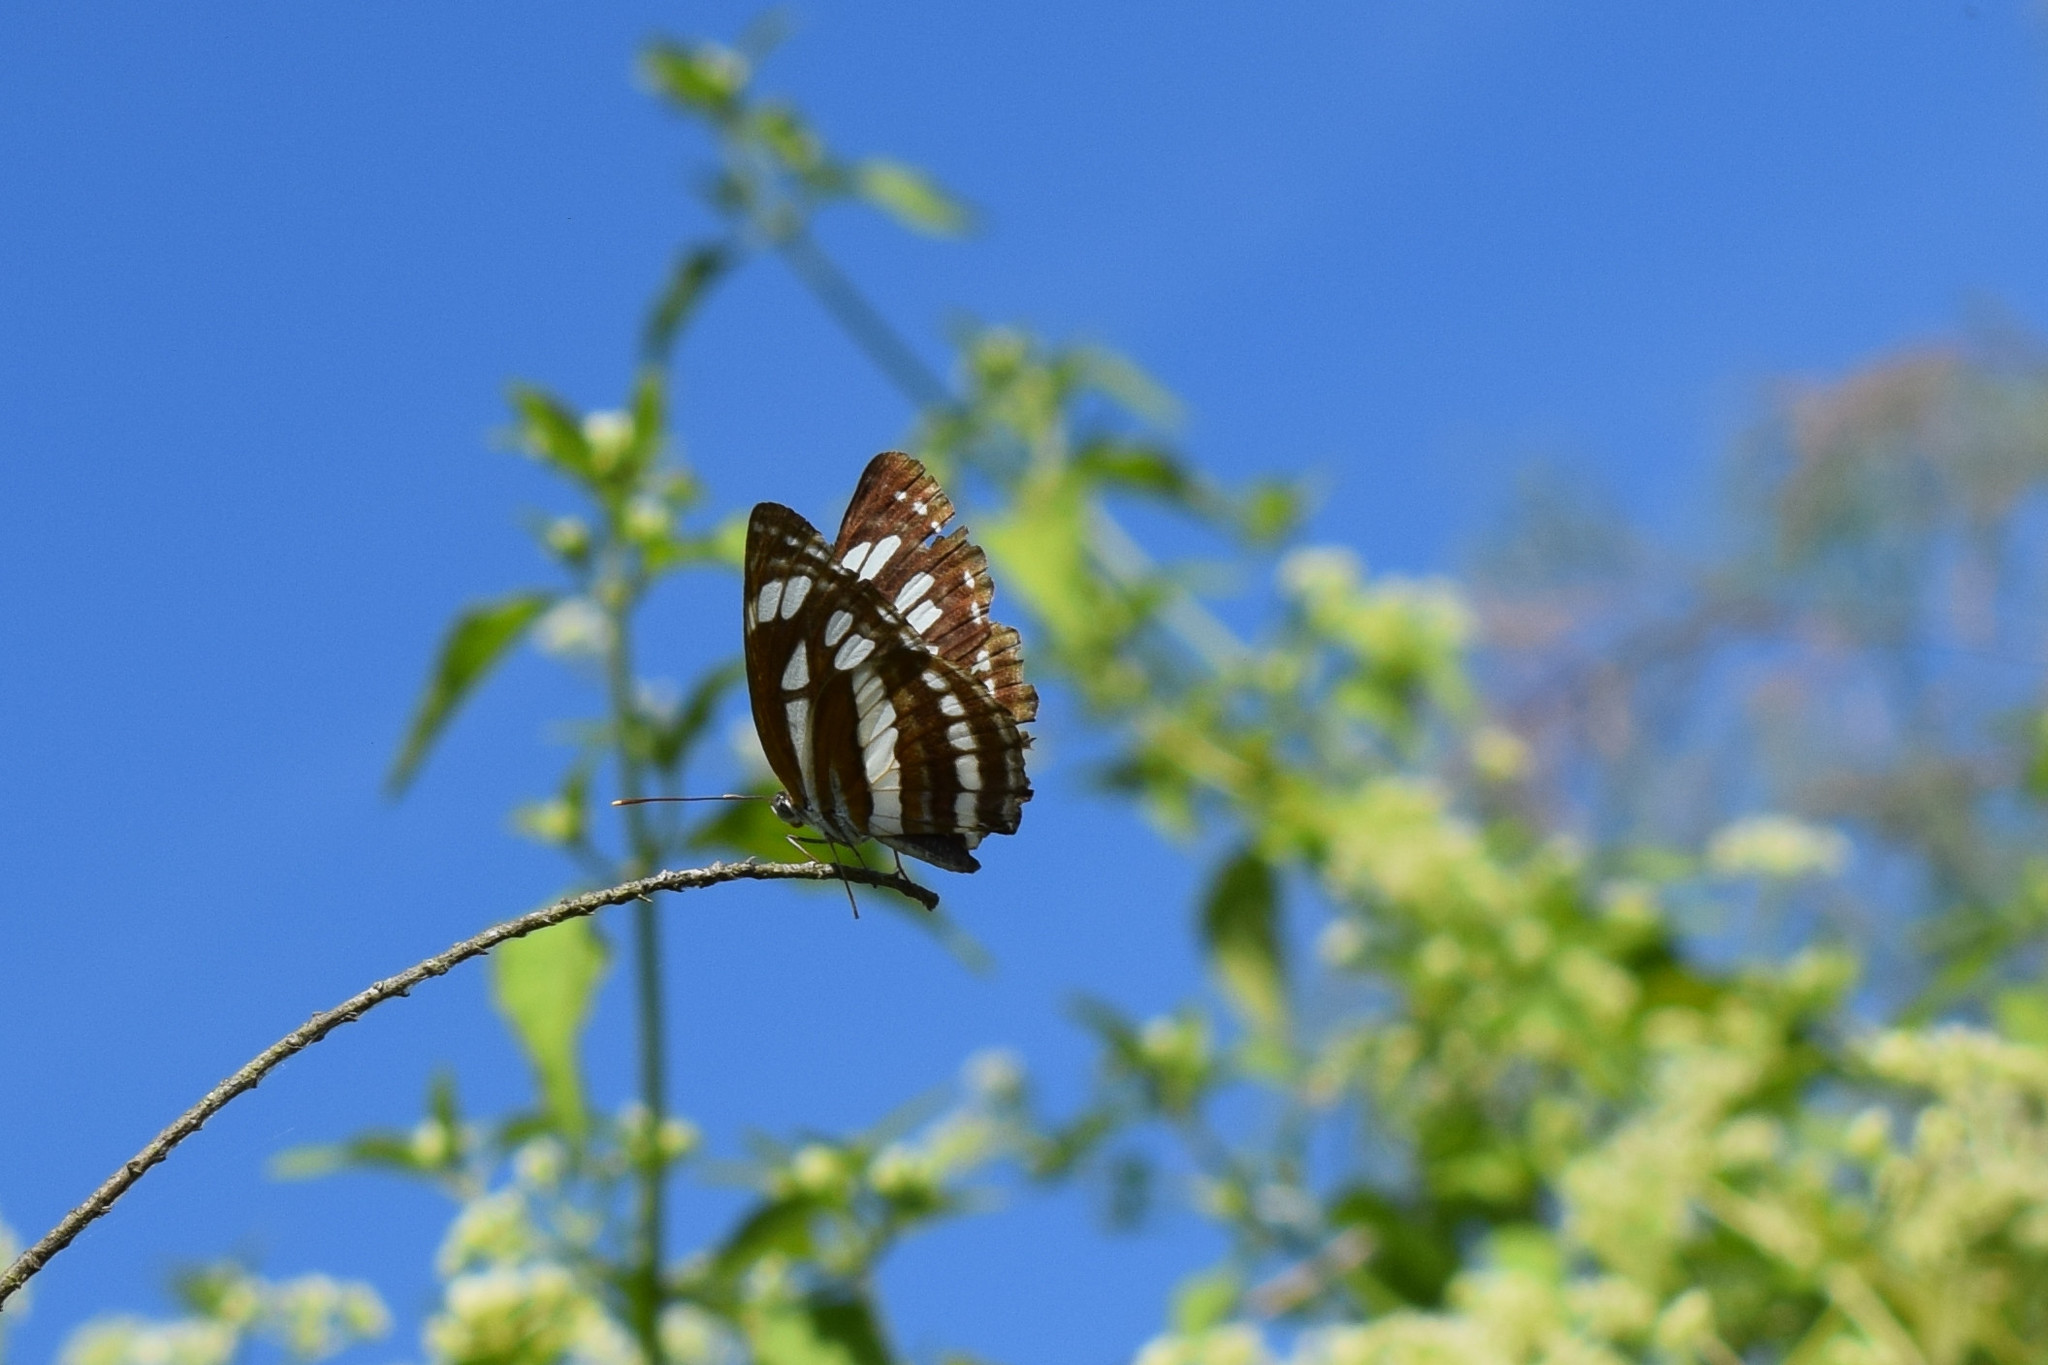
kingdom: Animalia
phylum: Arthropoda
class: Insecta
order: Lepidoptera
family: Nymphalidae
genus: Neptis
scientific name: Neptis hylas
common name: Common sailer
